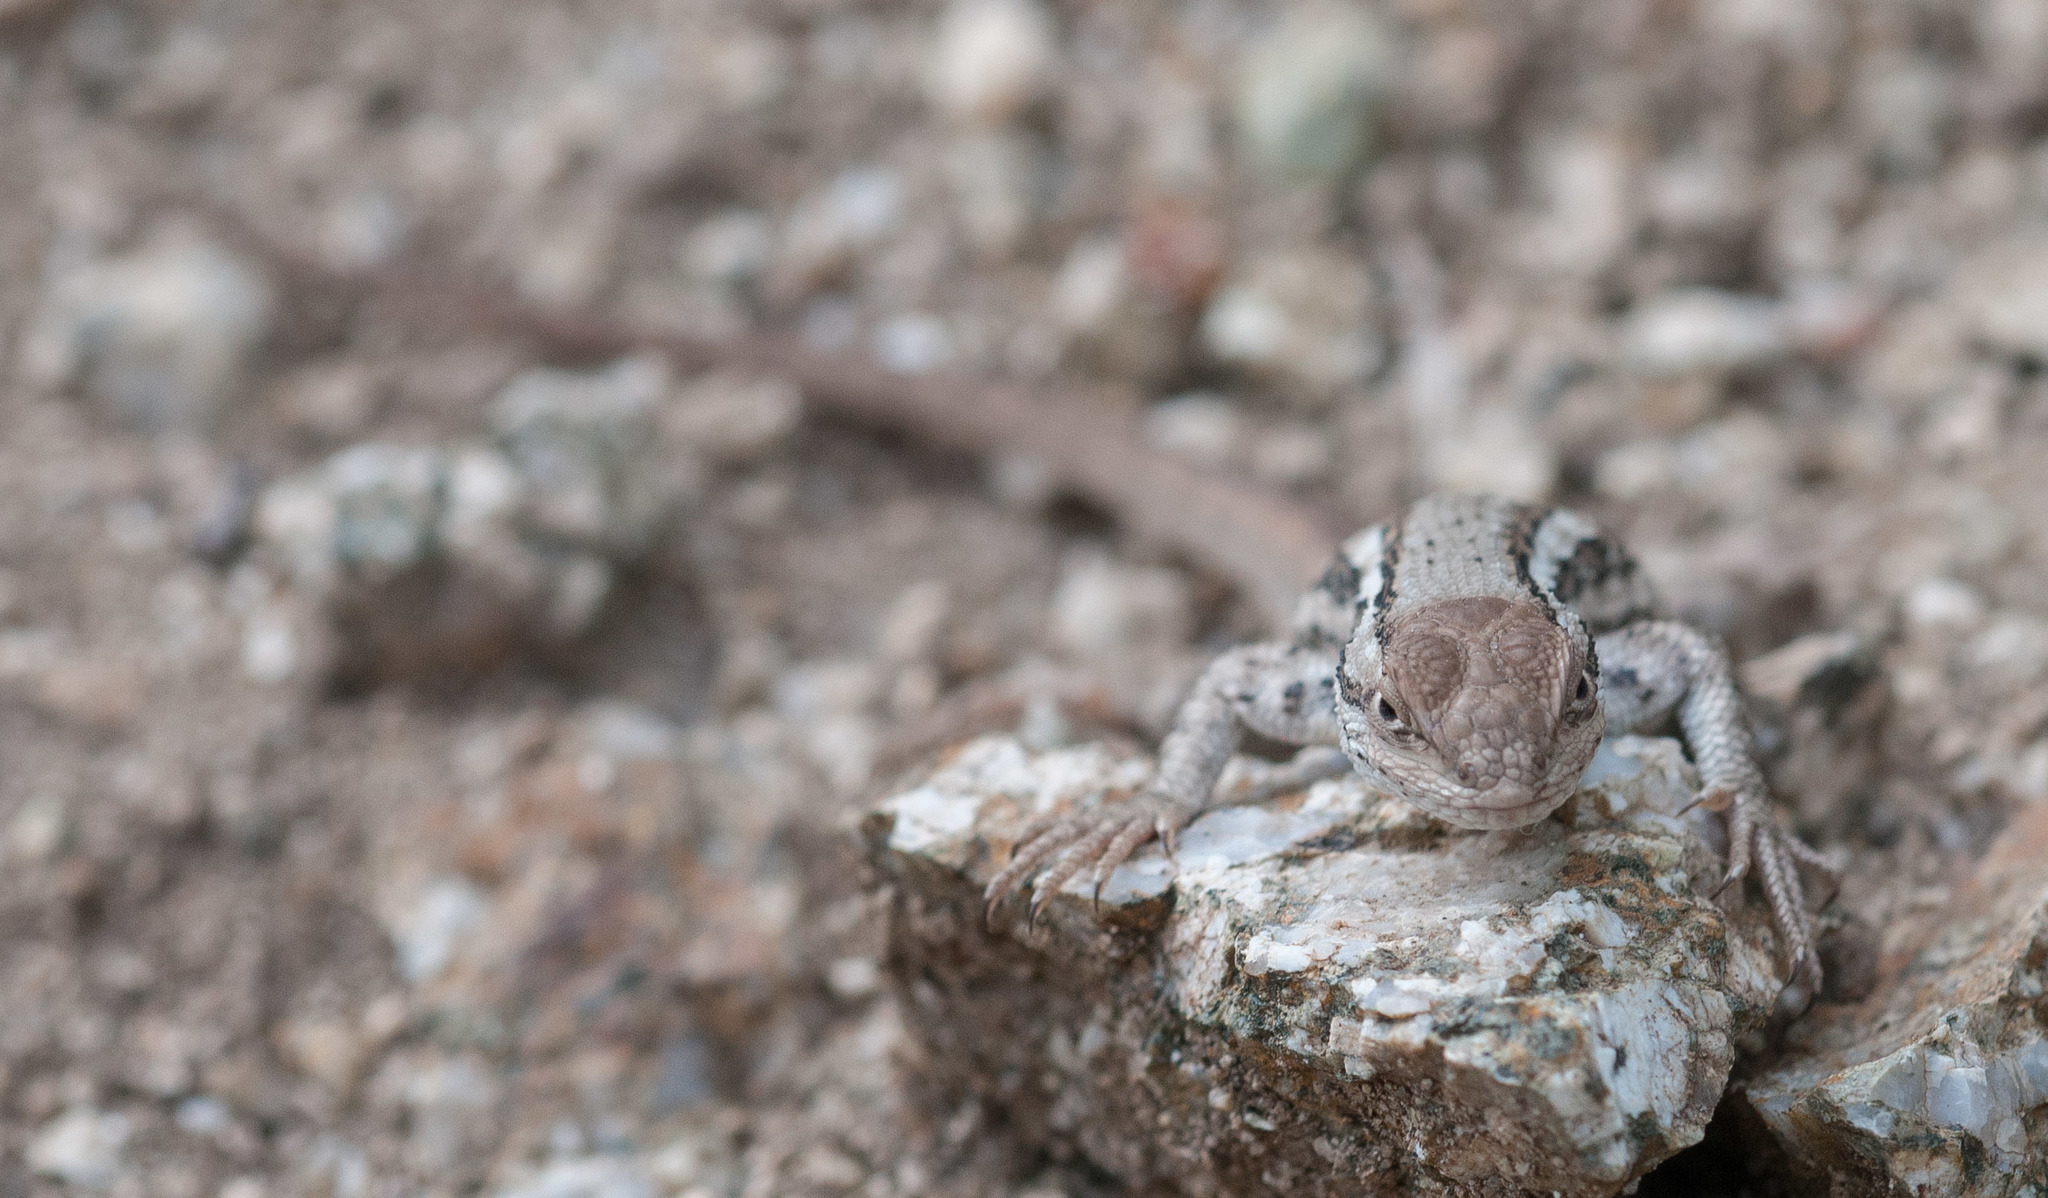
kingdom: Animalia
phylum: Chordata
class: Squamata
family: Phrynosomatidae
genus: Sceloporus
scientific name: Sceloporus graciosus
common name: Sagebrush lizard
